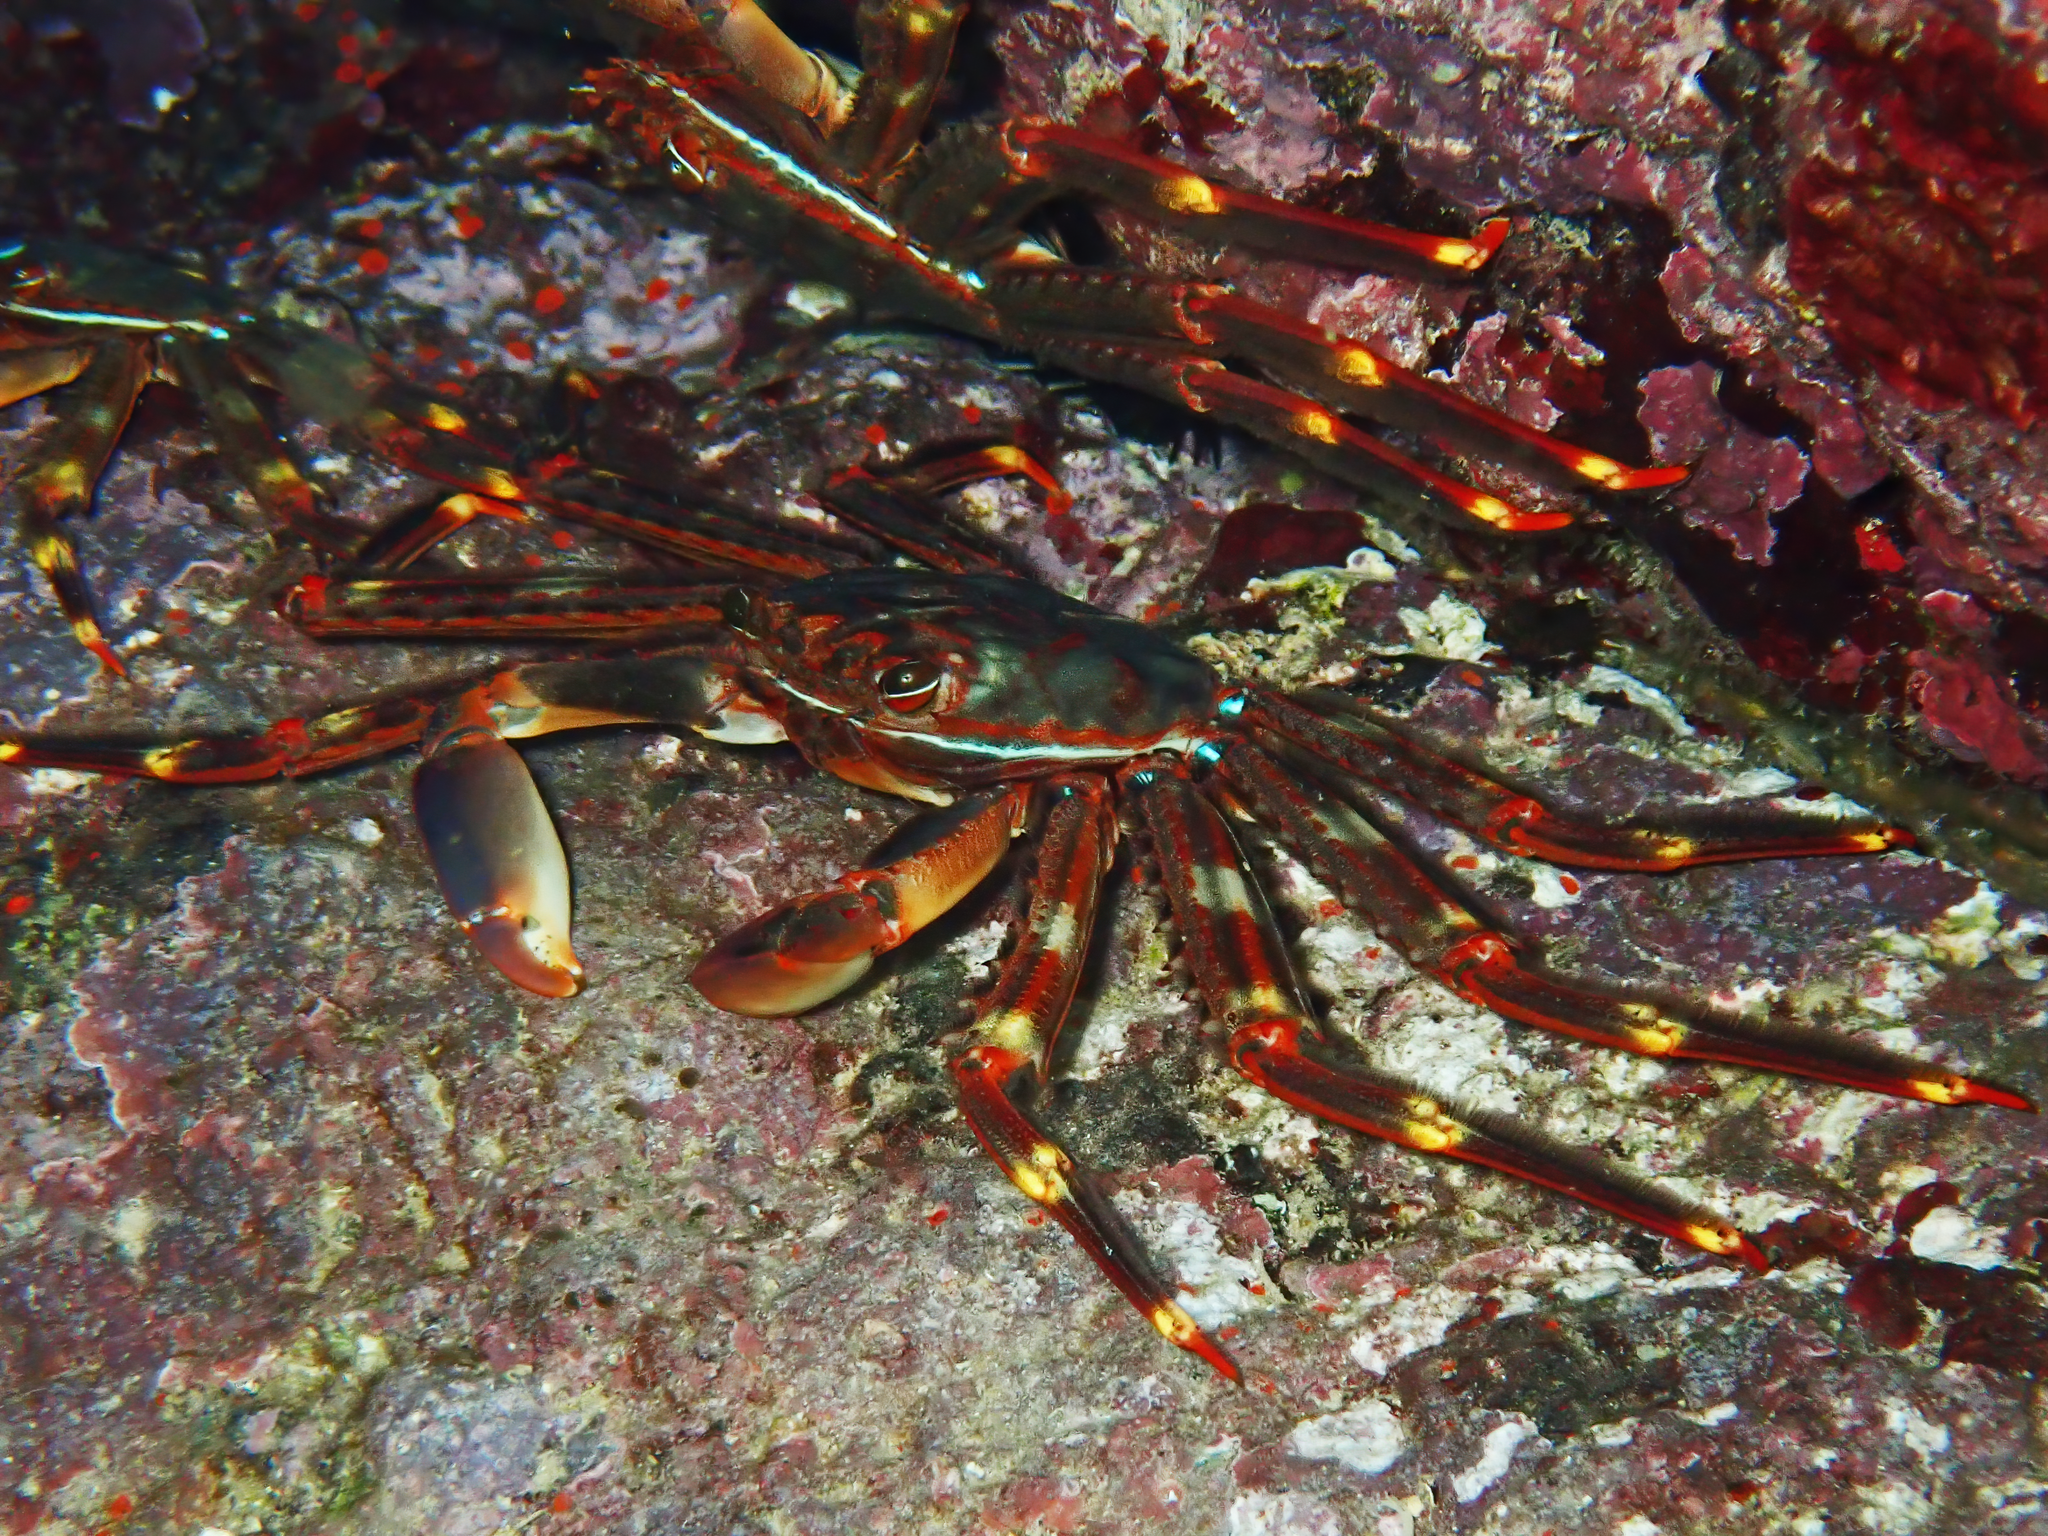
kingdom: Animalia
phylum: Arthropoda
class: Malacostraca
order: Decapoda
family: Percnidae
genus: Percnon
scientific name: Percnon gibbesi
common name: Nimble spray crab
